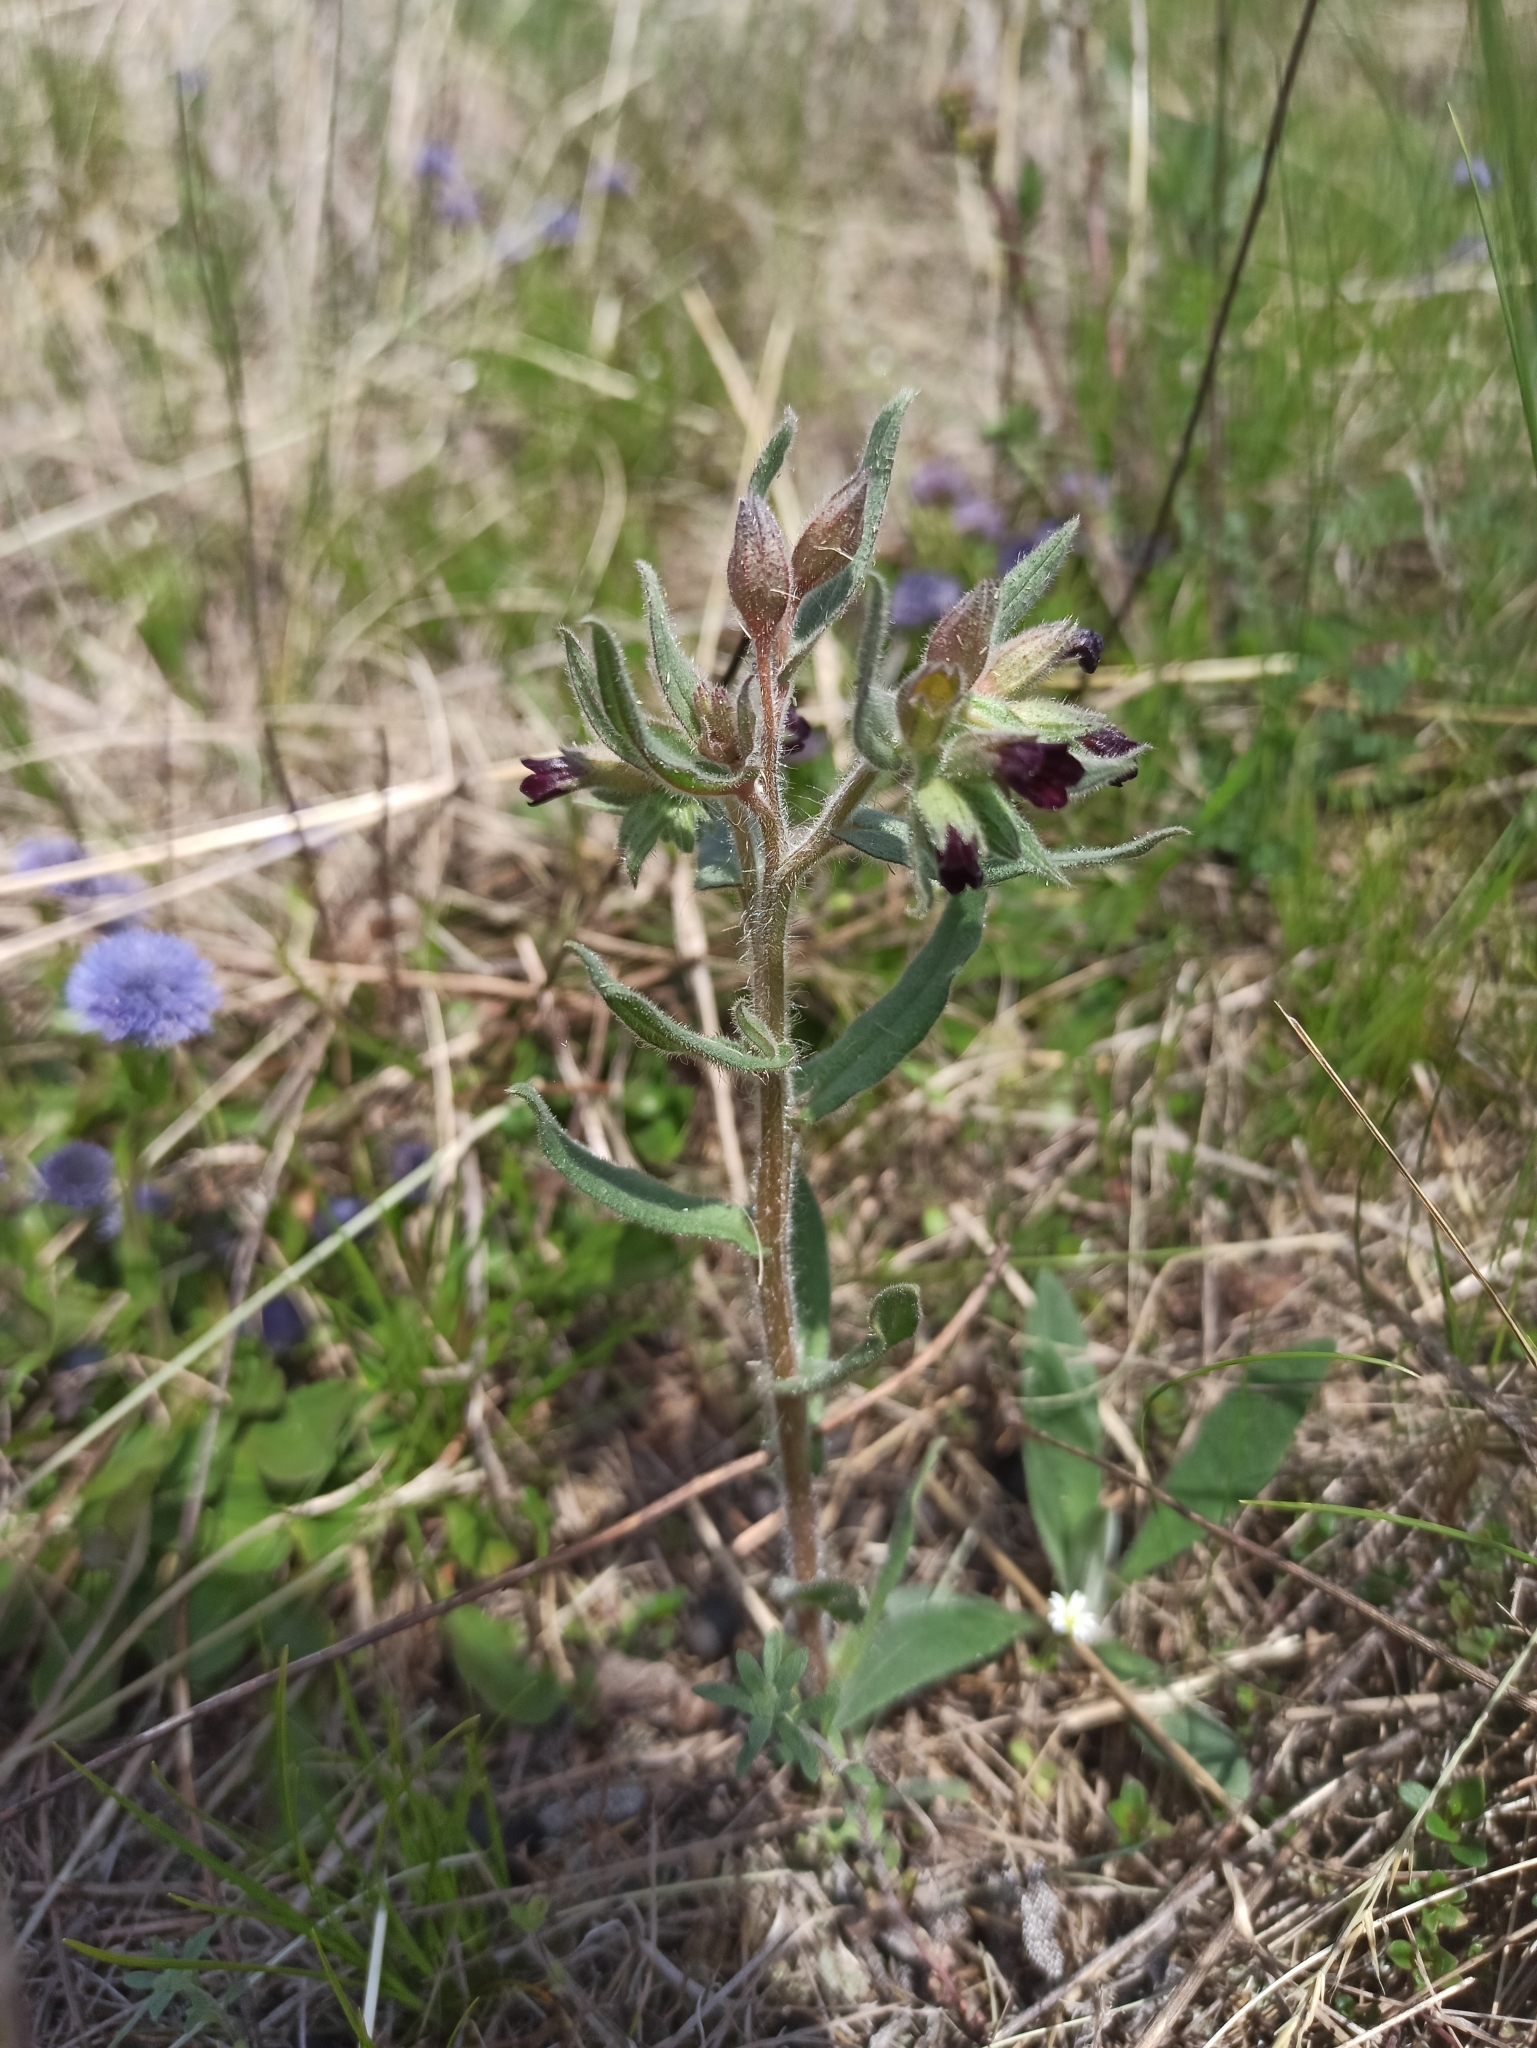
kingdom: Plantae
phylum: Tracheophyta
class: Magnoliopsida
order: Boraginales
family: Boraginaceae
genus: Nonea
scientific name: Nonea pulla
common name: Brown nonea
